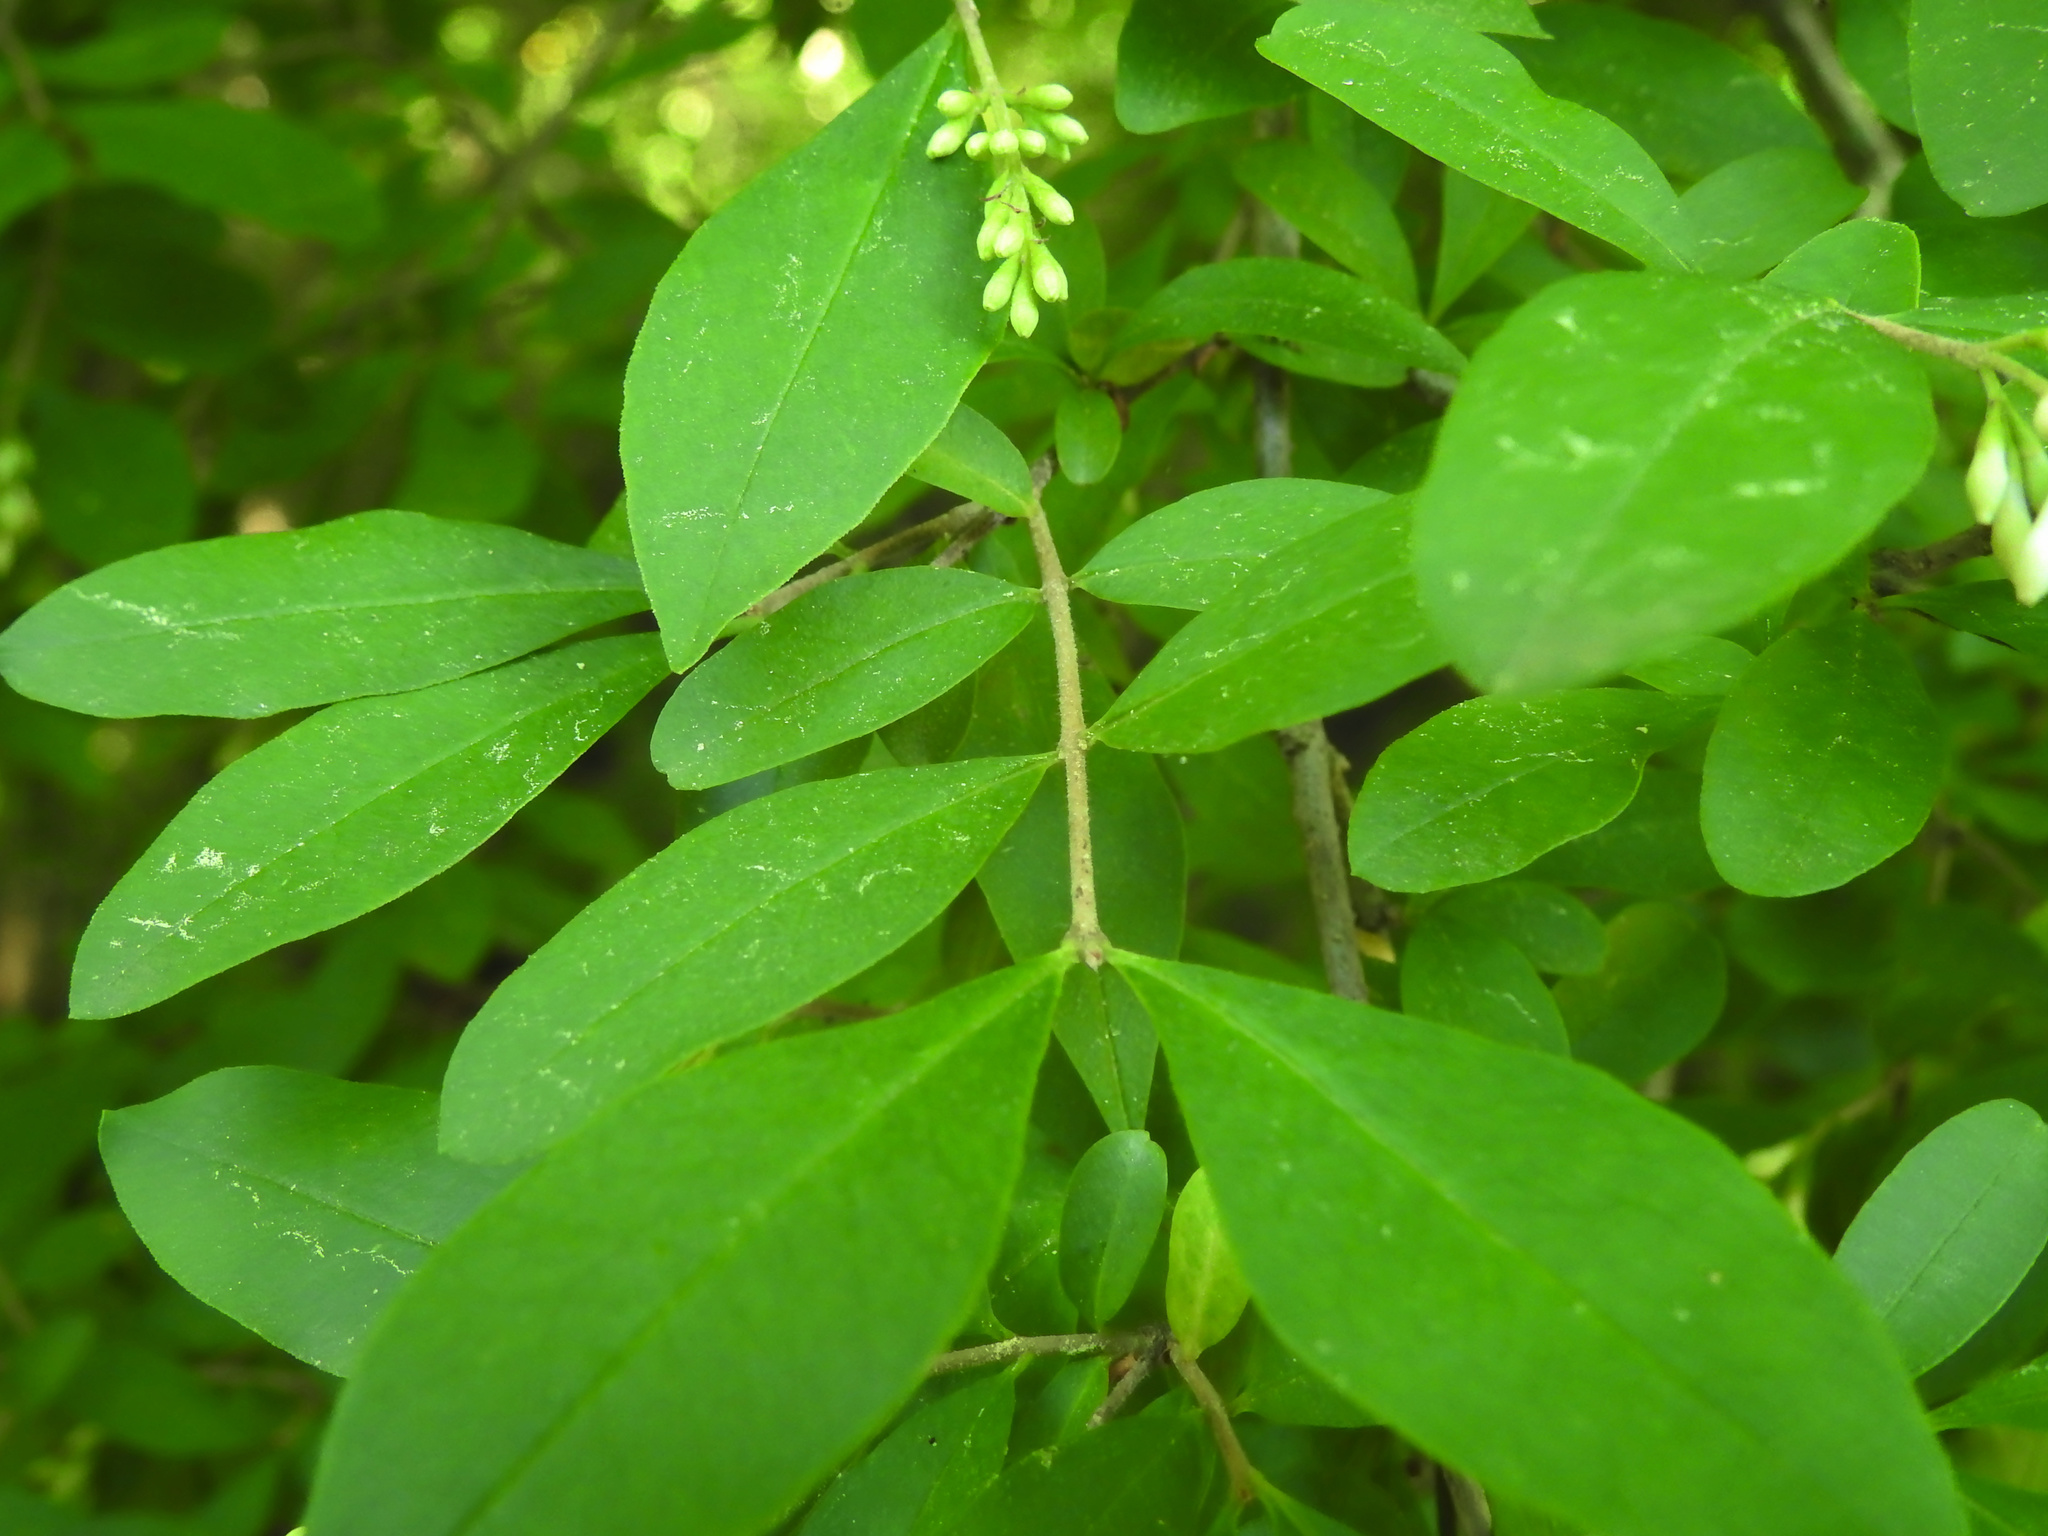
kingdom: Plantae
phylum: Tracheophyta
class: Magnoliopsida
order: Lamiales
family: Oleaceae
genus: Ligustrum
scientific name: Ligustrum obtusifolium
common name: Border privet
